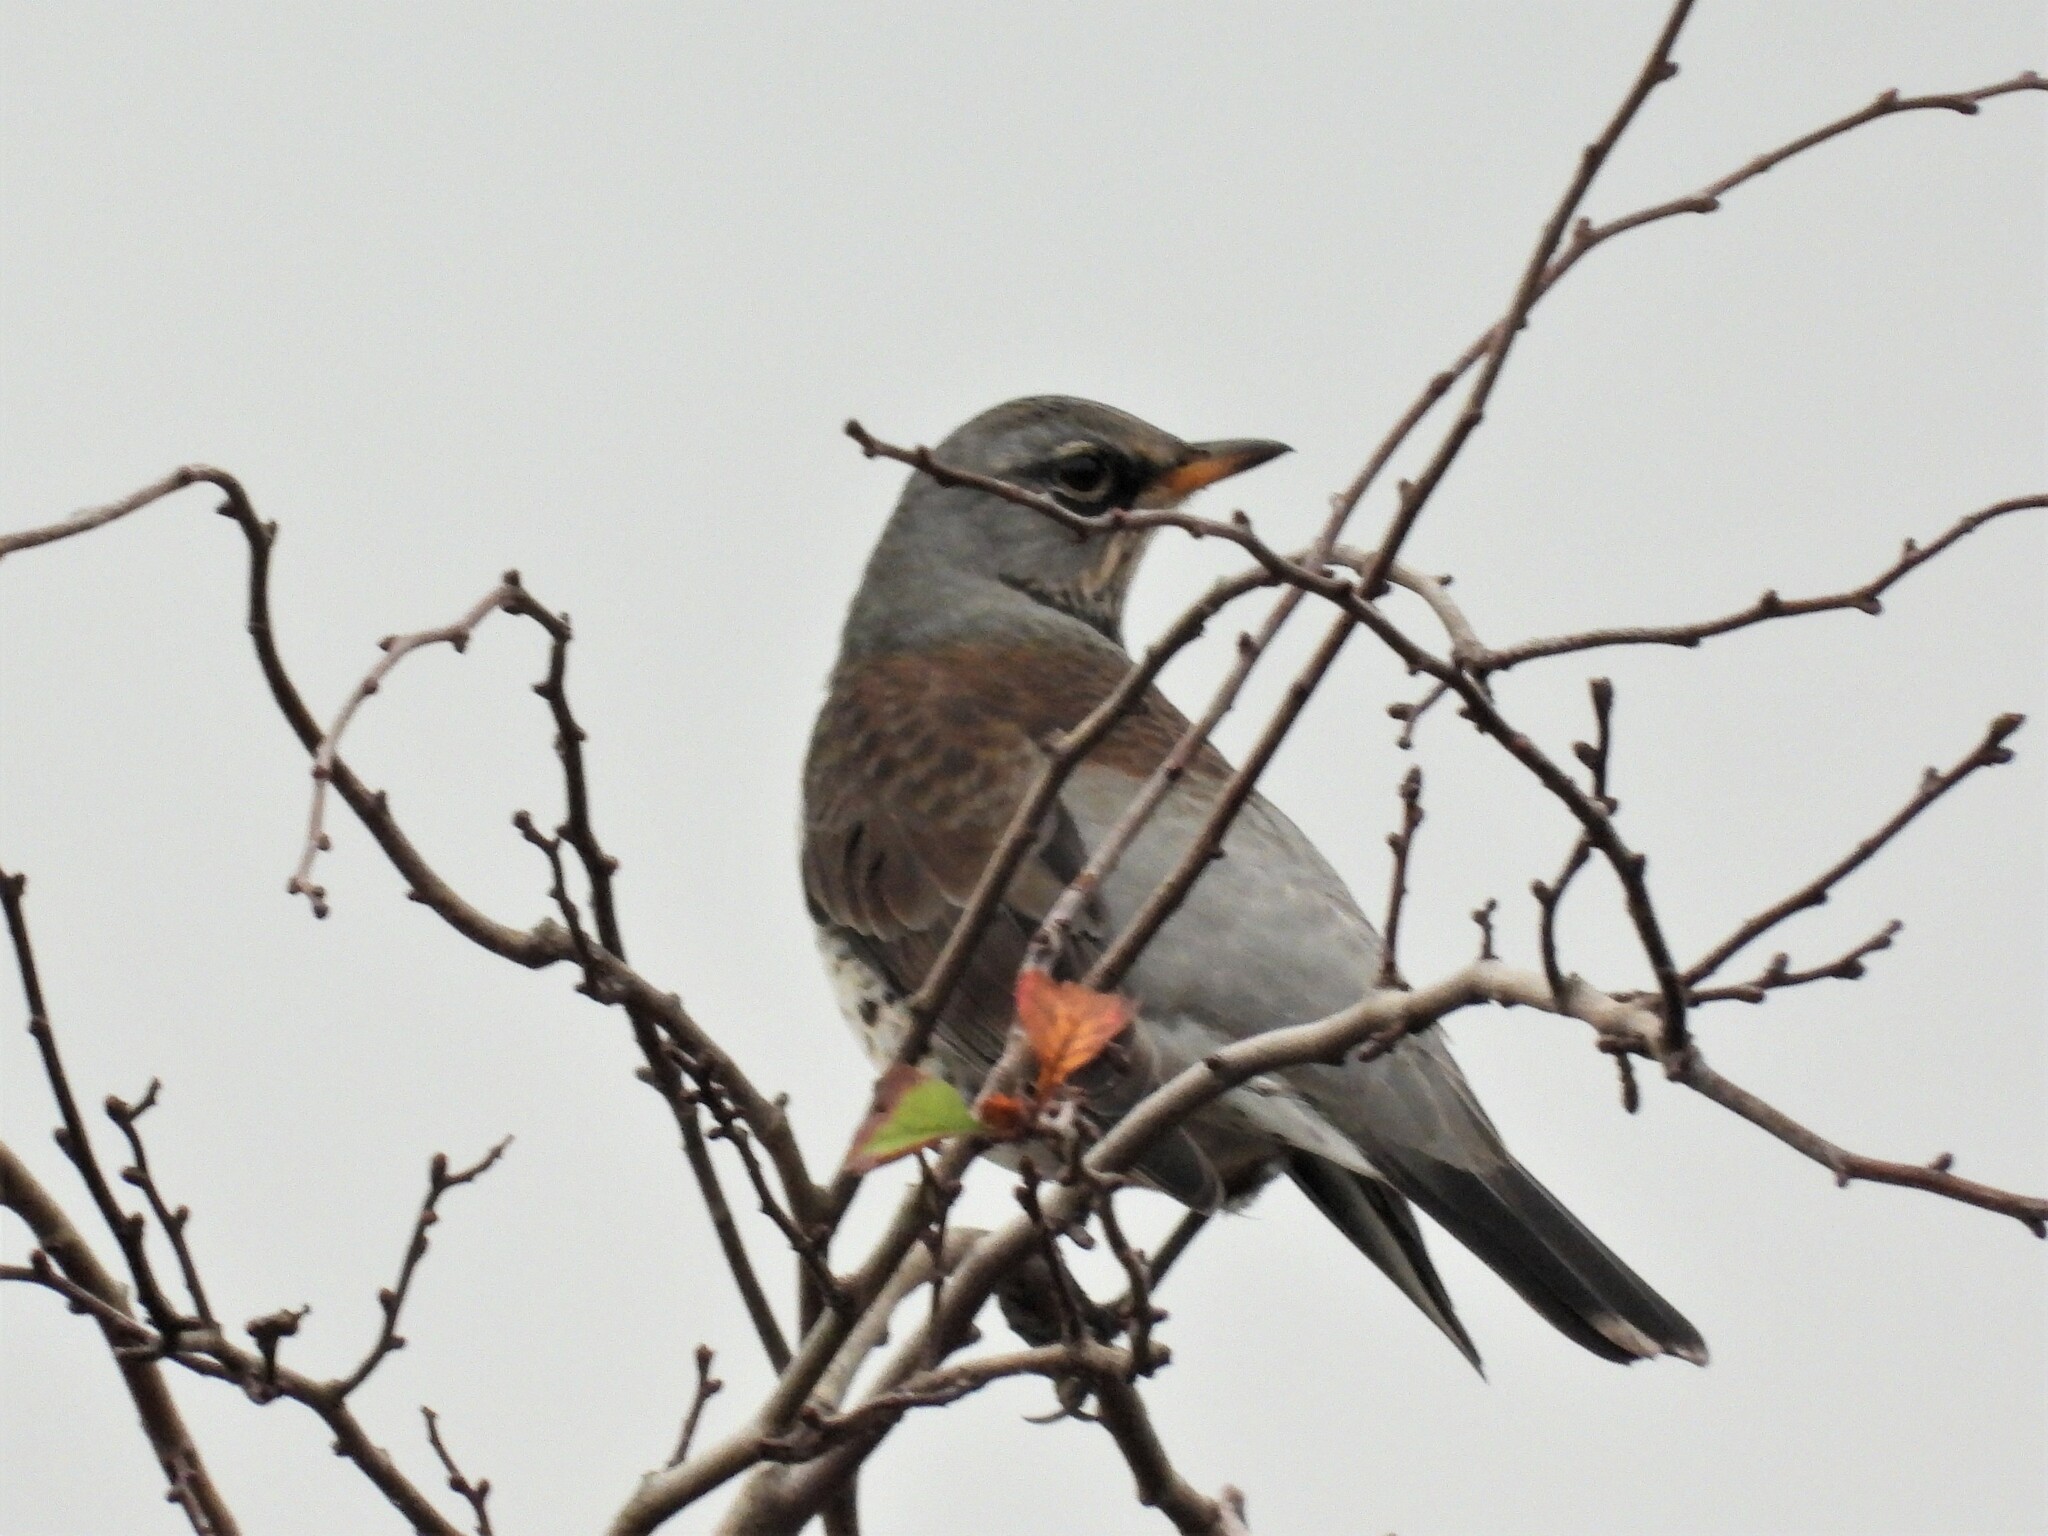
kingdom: Animalia
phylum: Chordata
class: Aves
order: Passeriformes
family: Turdidae
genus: Turdus
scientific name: Turdus pilaris
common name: Fieldfare
